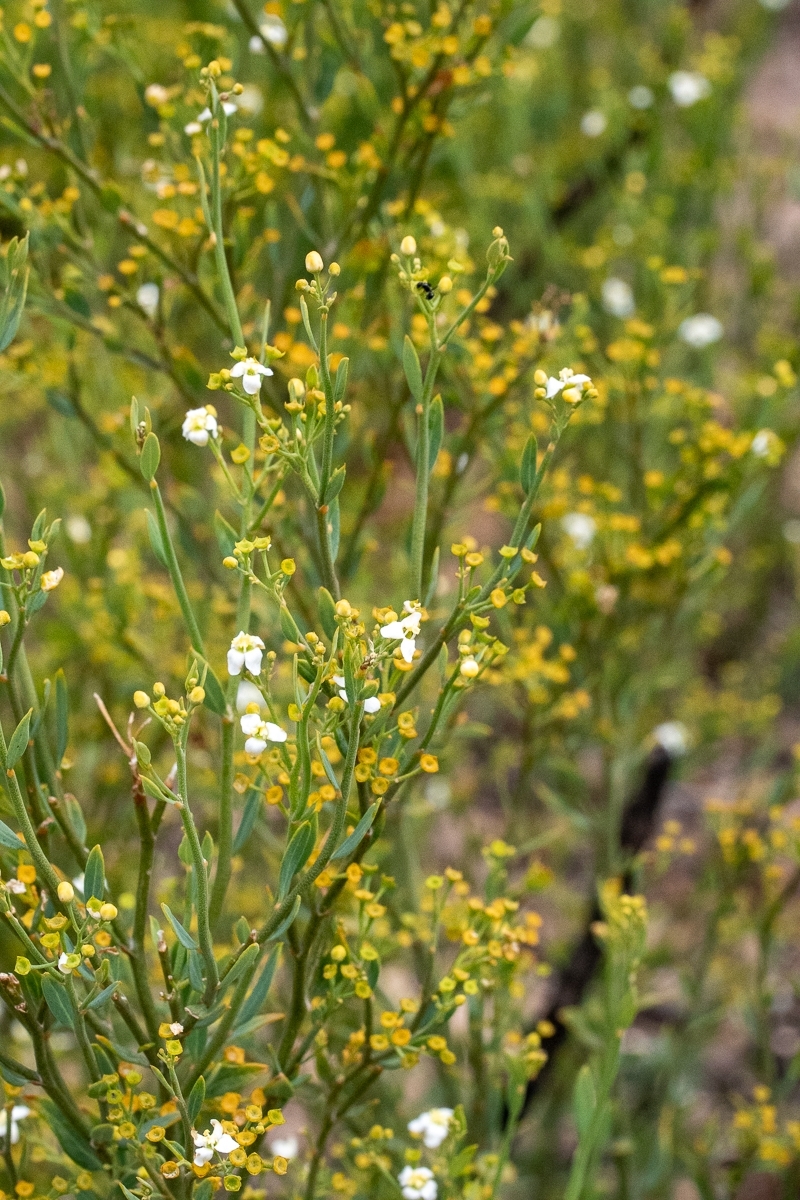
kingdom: Plantae
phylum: Tracheophyta
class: Magnoliopsida
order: Solanales
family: Montiniaceae
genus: Montinia
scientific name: Montinia caryophyllacea
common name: Wild clove-bush
